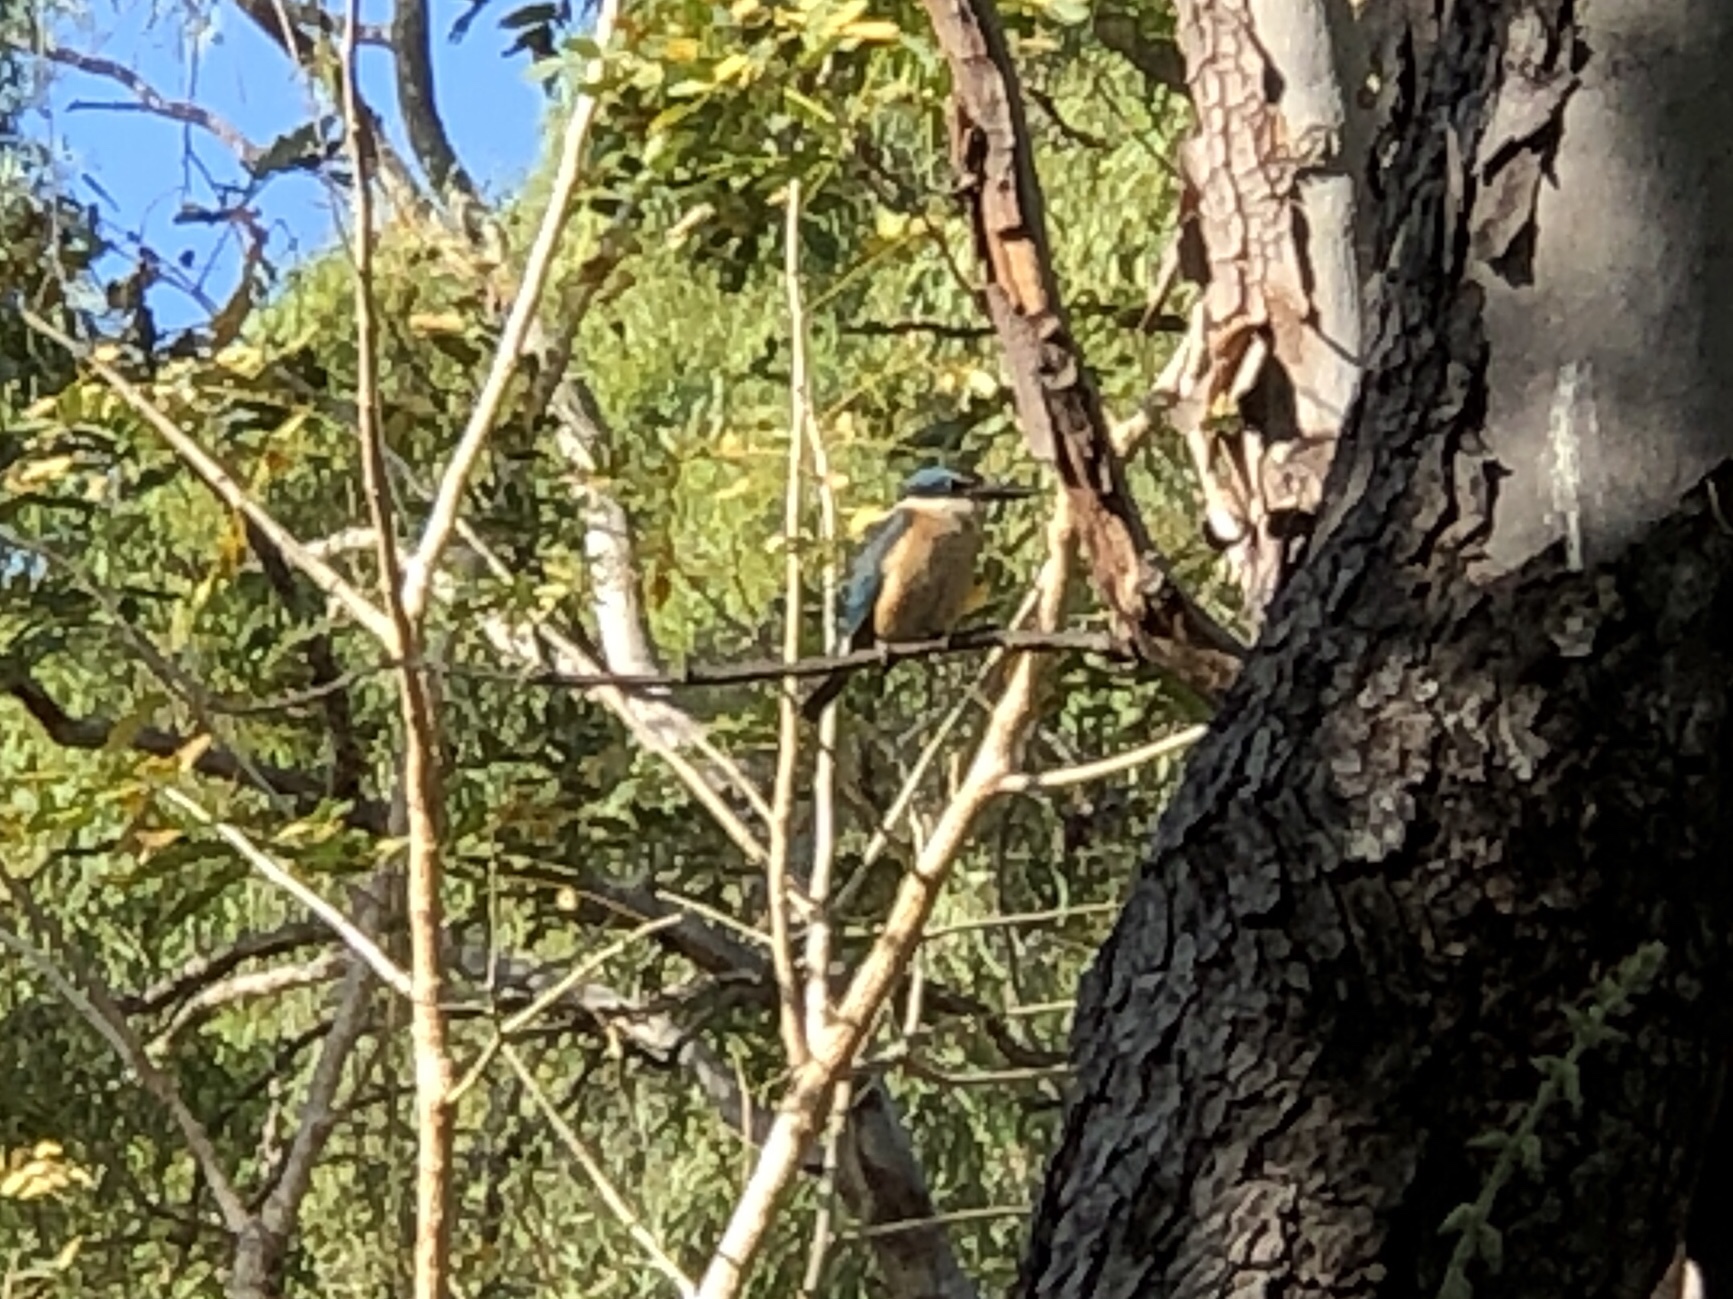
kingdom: Animalia
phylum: Chordata
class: Aves
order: Coraciiformes
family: Alcedinidae
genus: Todiramphus
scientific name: Todiramphus sanctus
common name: Sacred kingfisher
